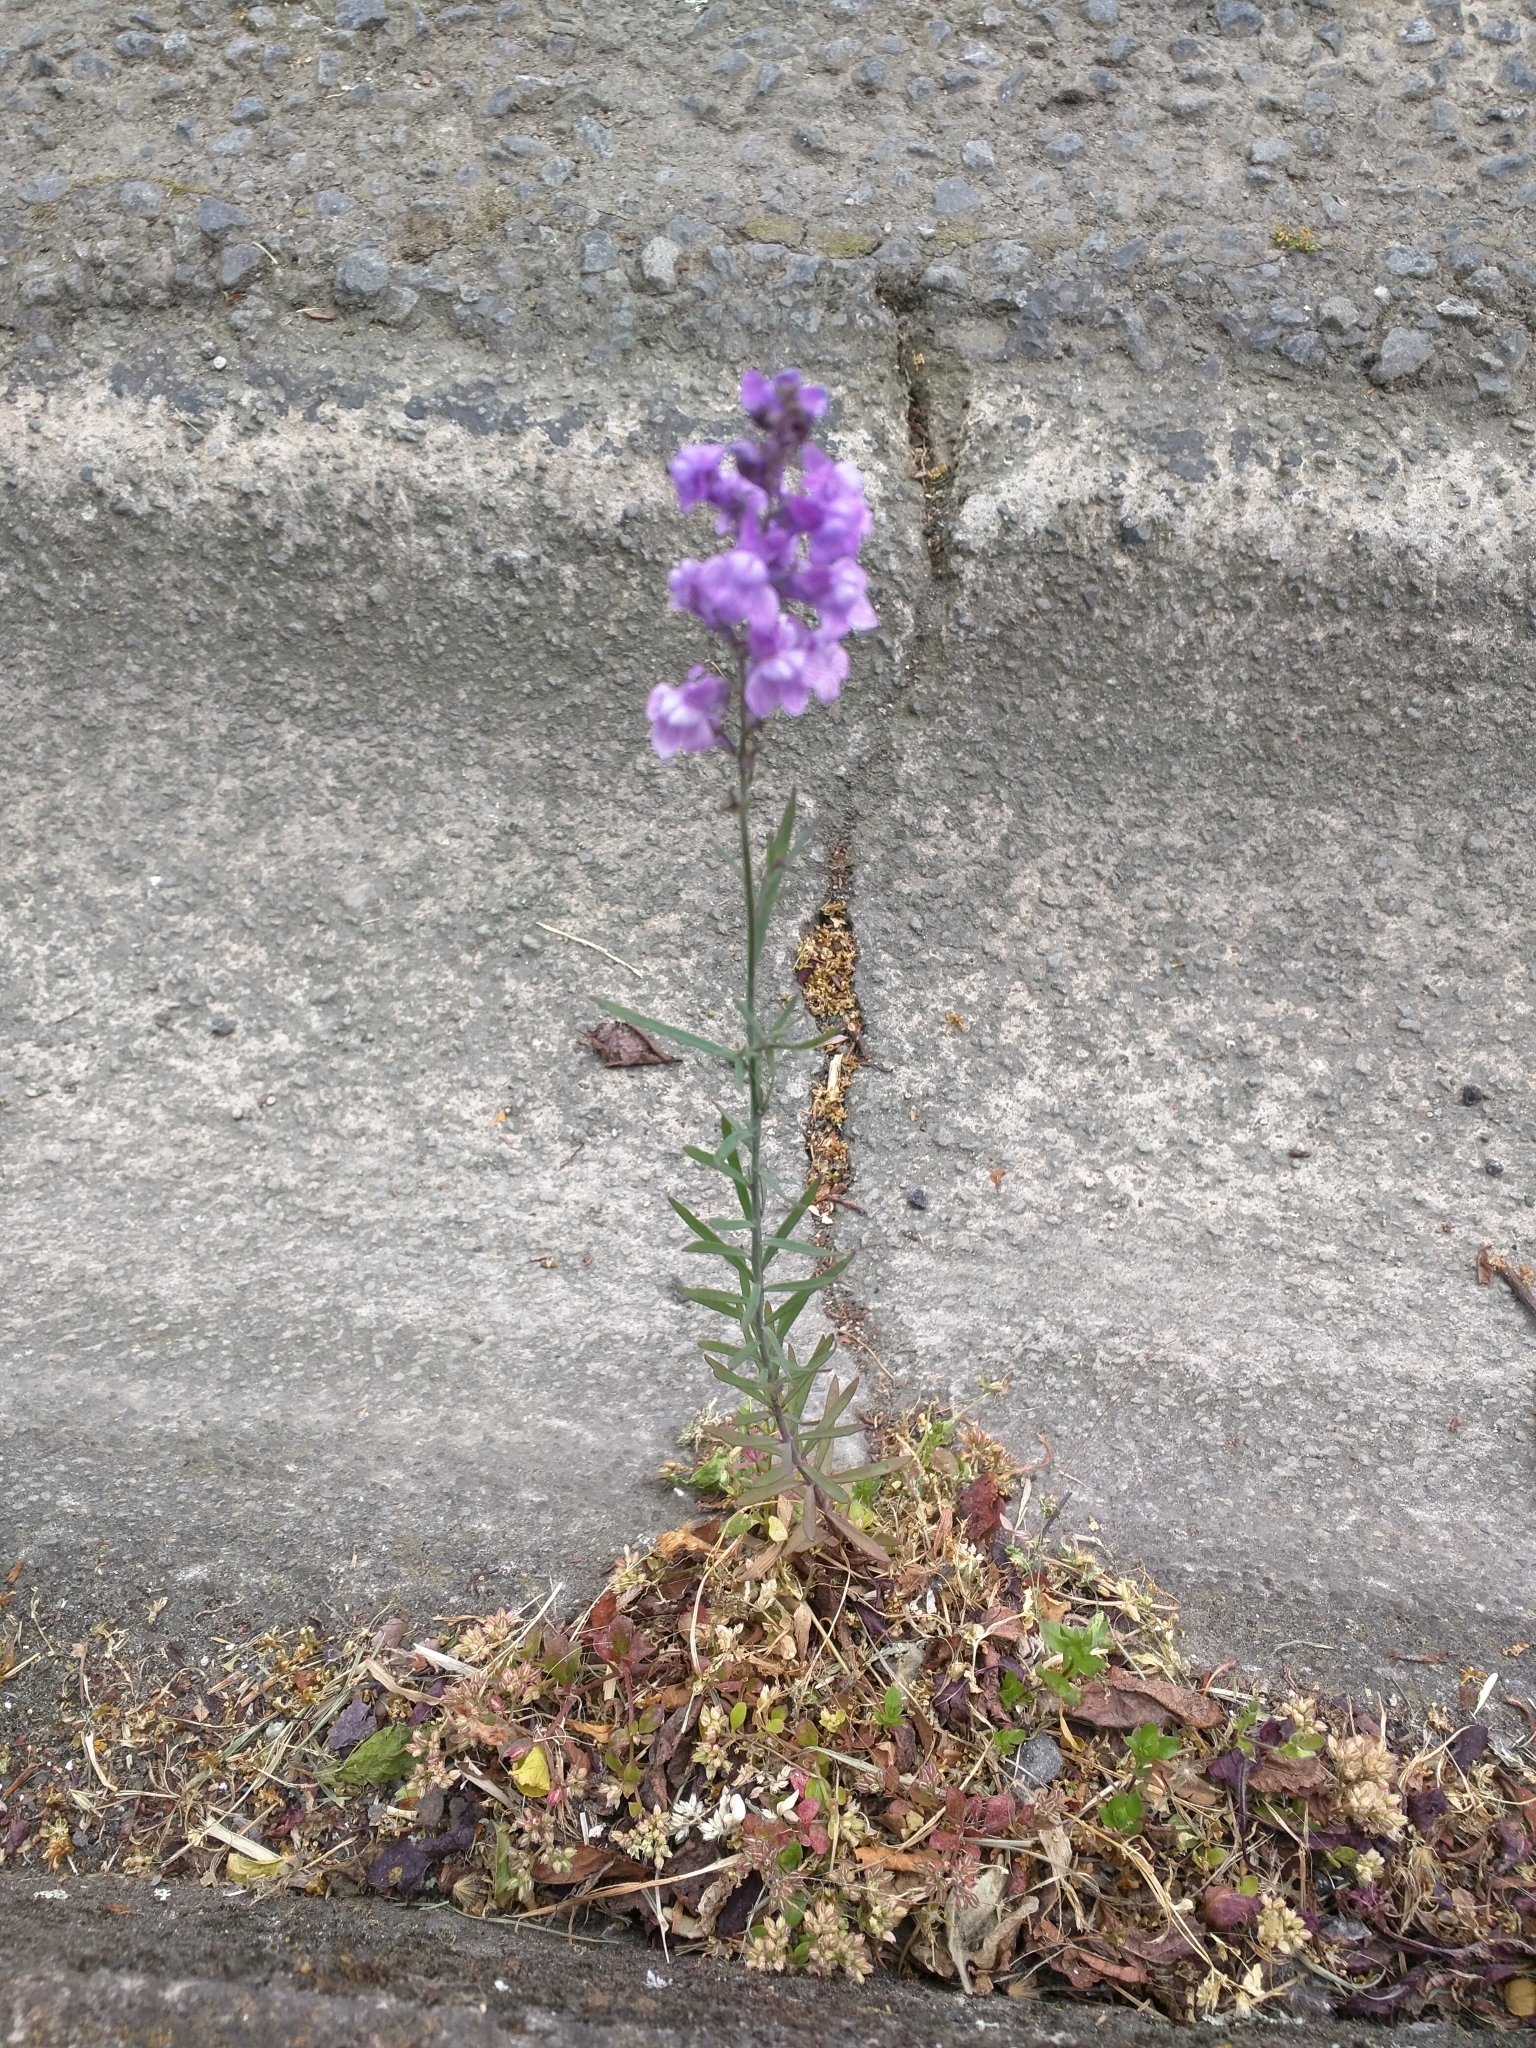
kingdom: Plantae
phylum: Tracheophyta
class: Magnoliopsida
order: Lamiales
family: Plantaginaceae
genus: Linaria
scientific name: Linaria purpurea
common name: Purple toadflax
